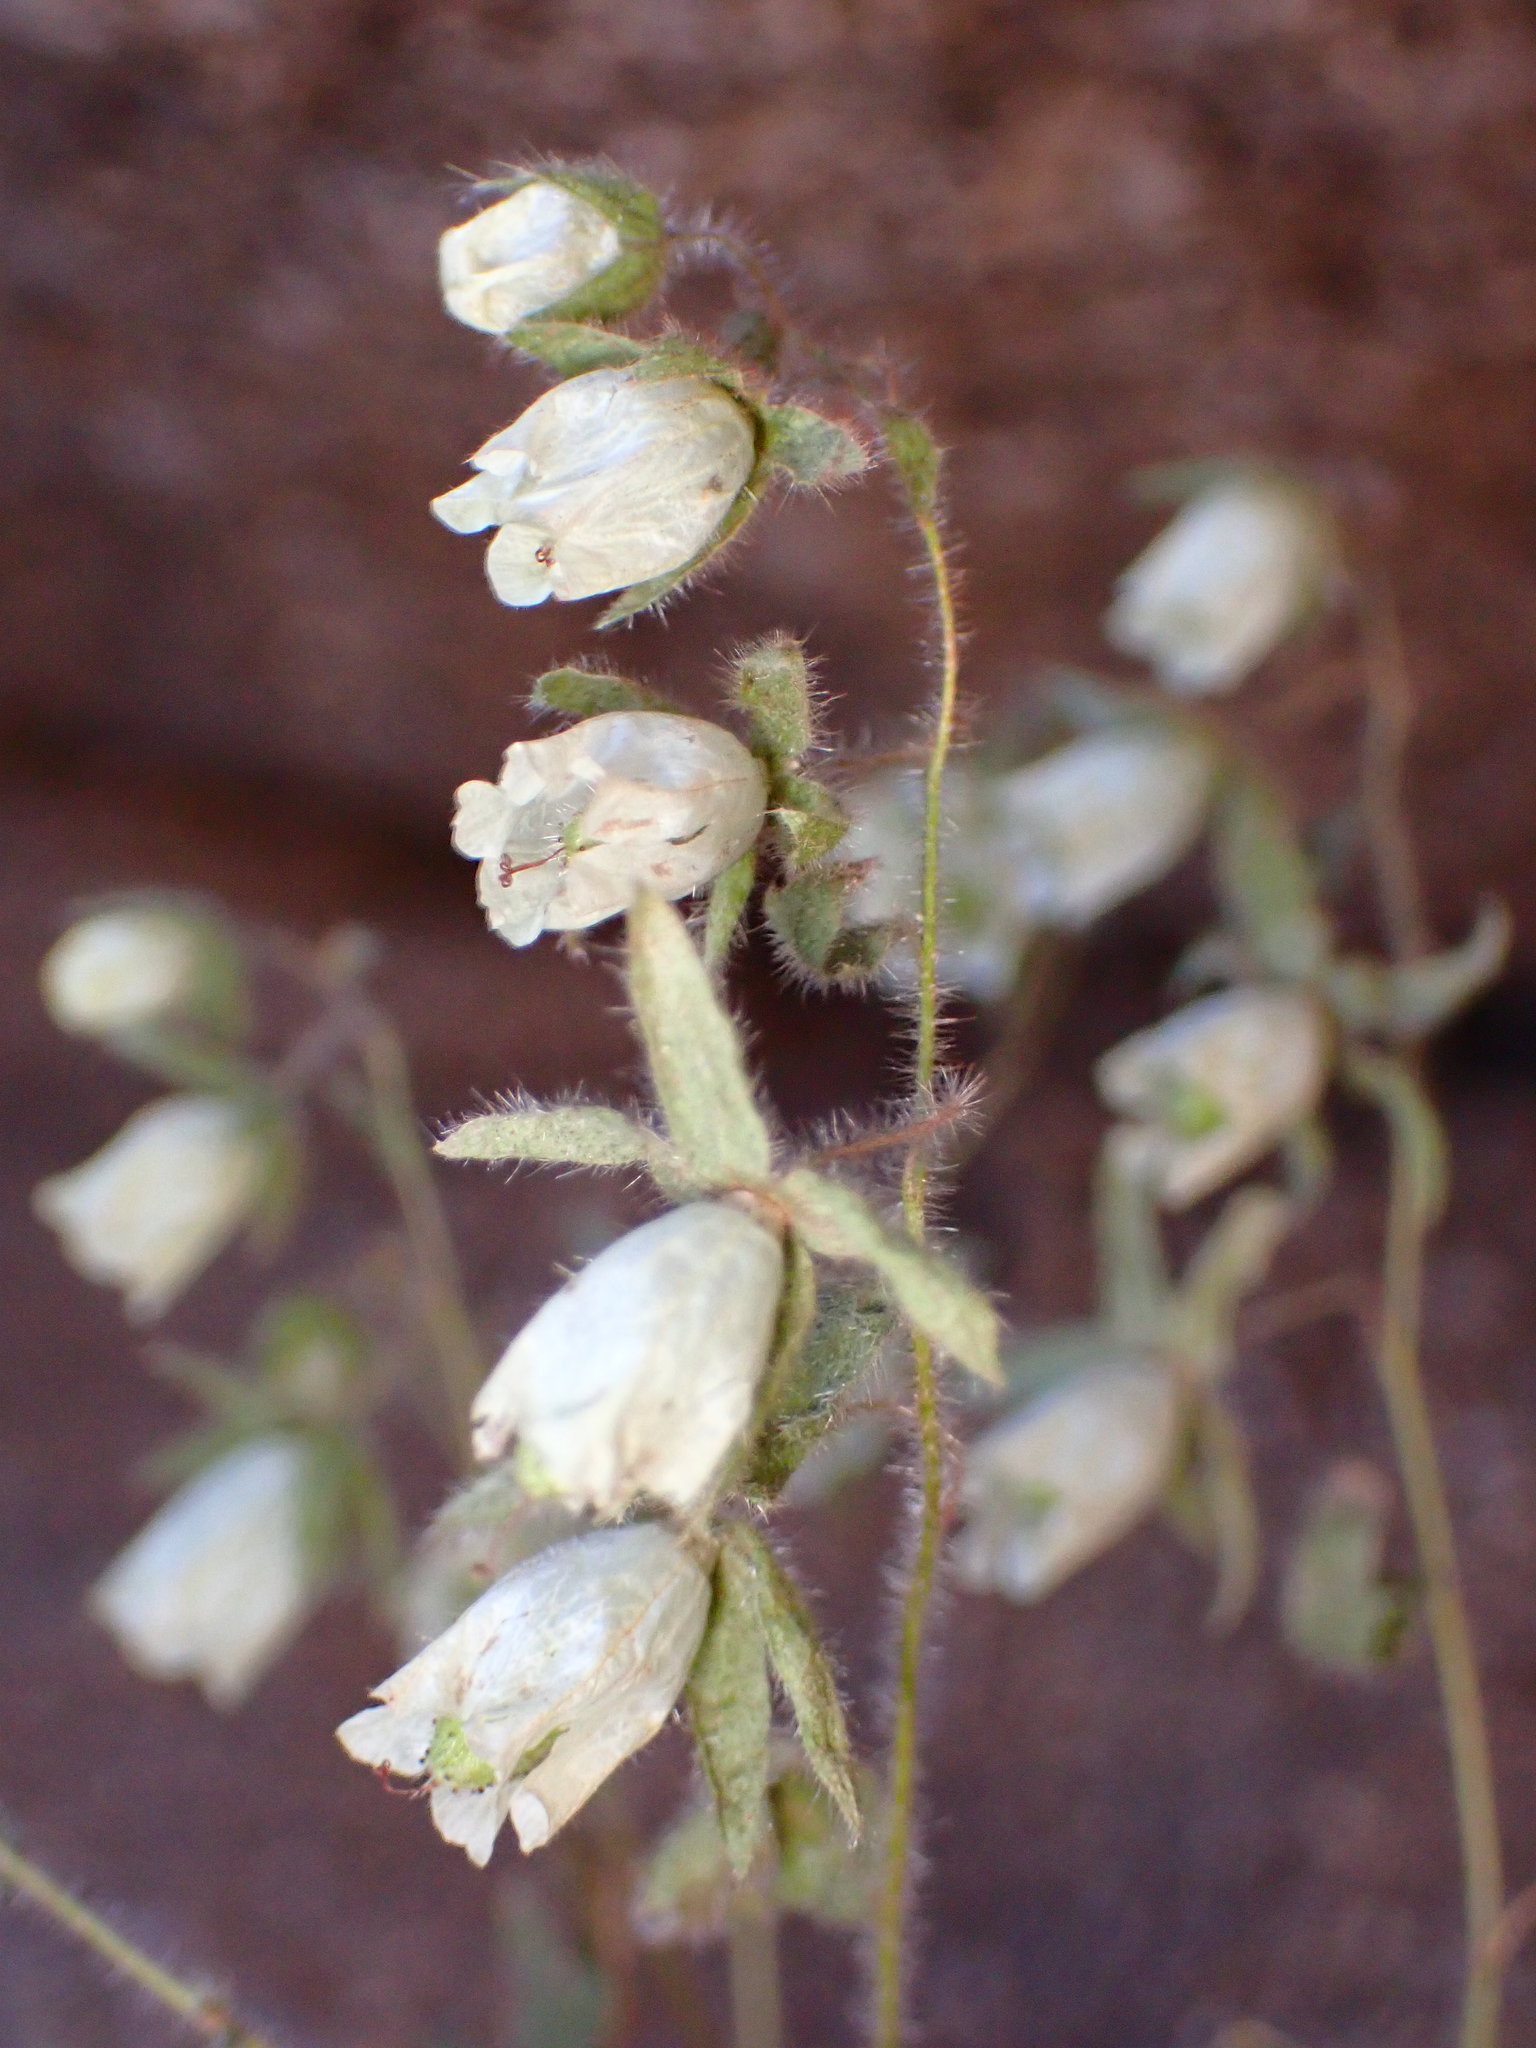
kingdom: Plantae
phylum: Tracheophyta
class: Magnoliopsida
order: Boraginales
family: Hydrophyllaceae
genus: Emmenanthe
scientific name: Emmenanthe penduliflora
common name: Whispering-bells
